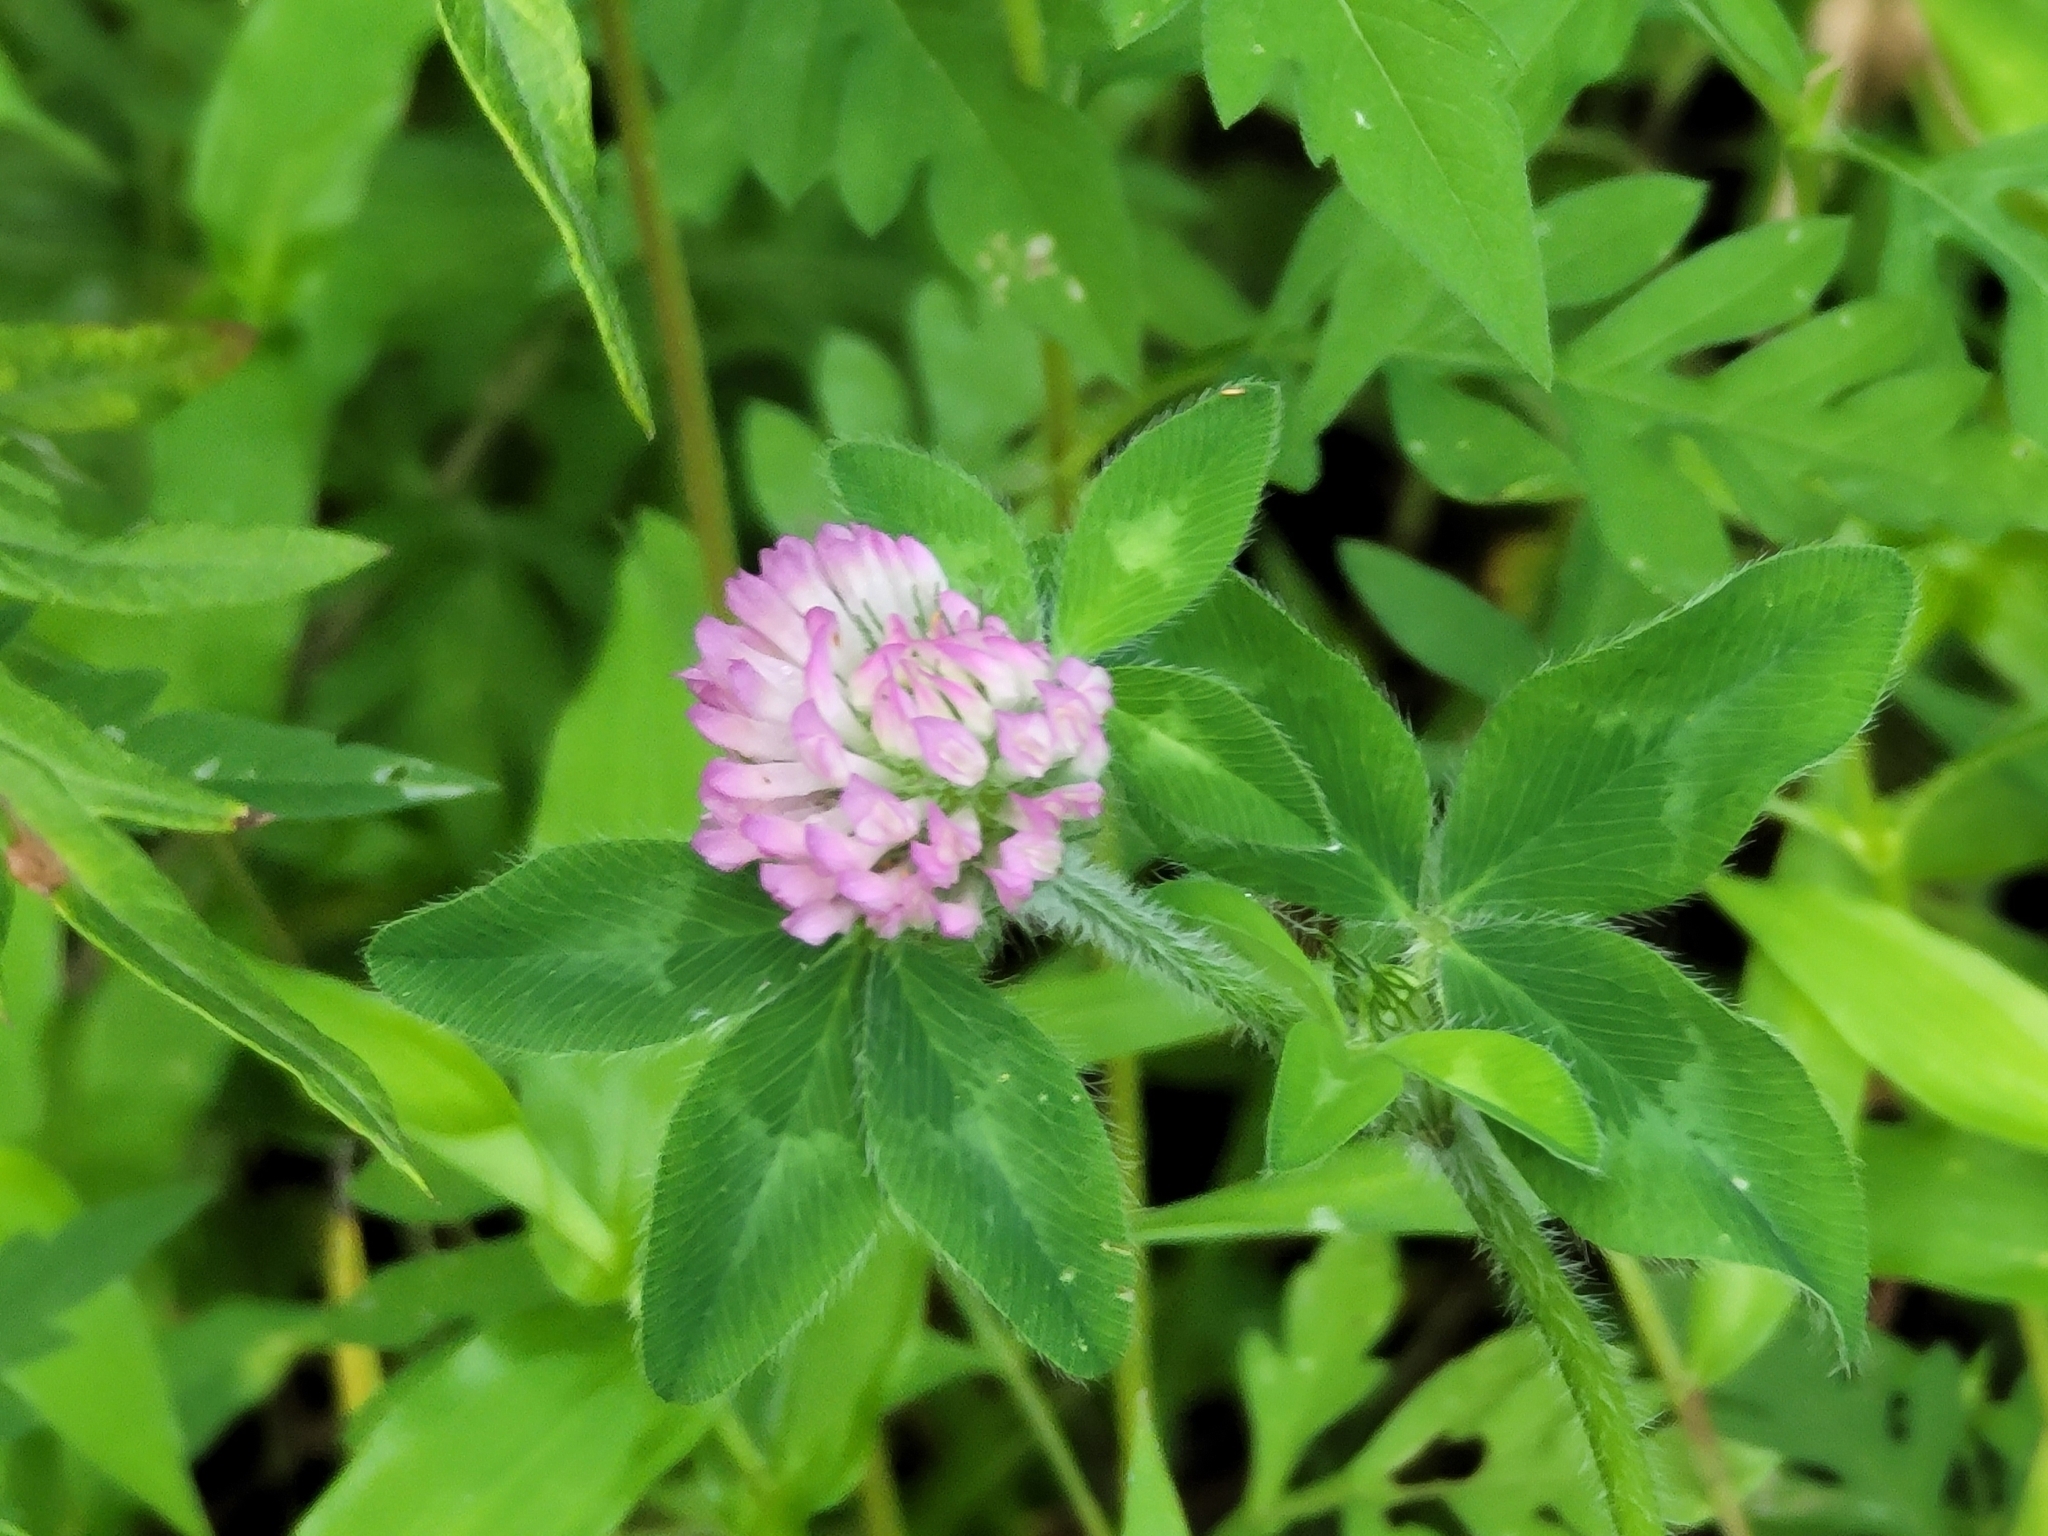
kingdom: Plantae
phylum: Tracheophyta
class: Magnoliopsida
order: Fabales
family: Fabaceae
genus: Trifolium
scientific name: Trifolium pratense
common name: Red clover
